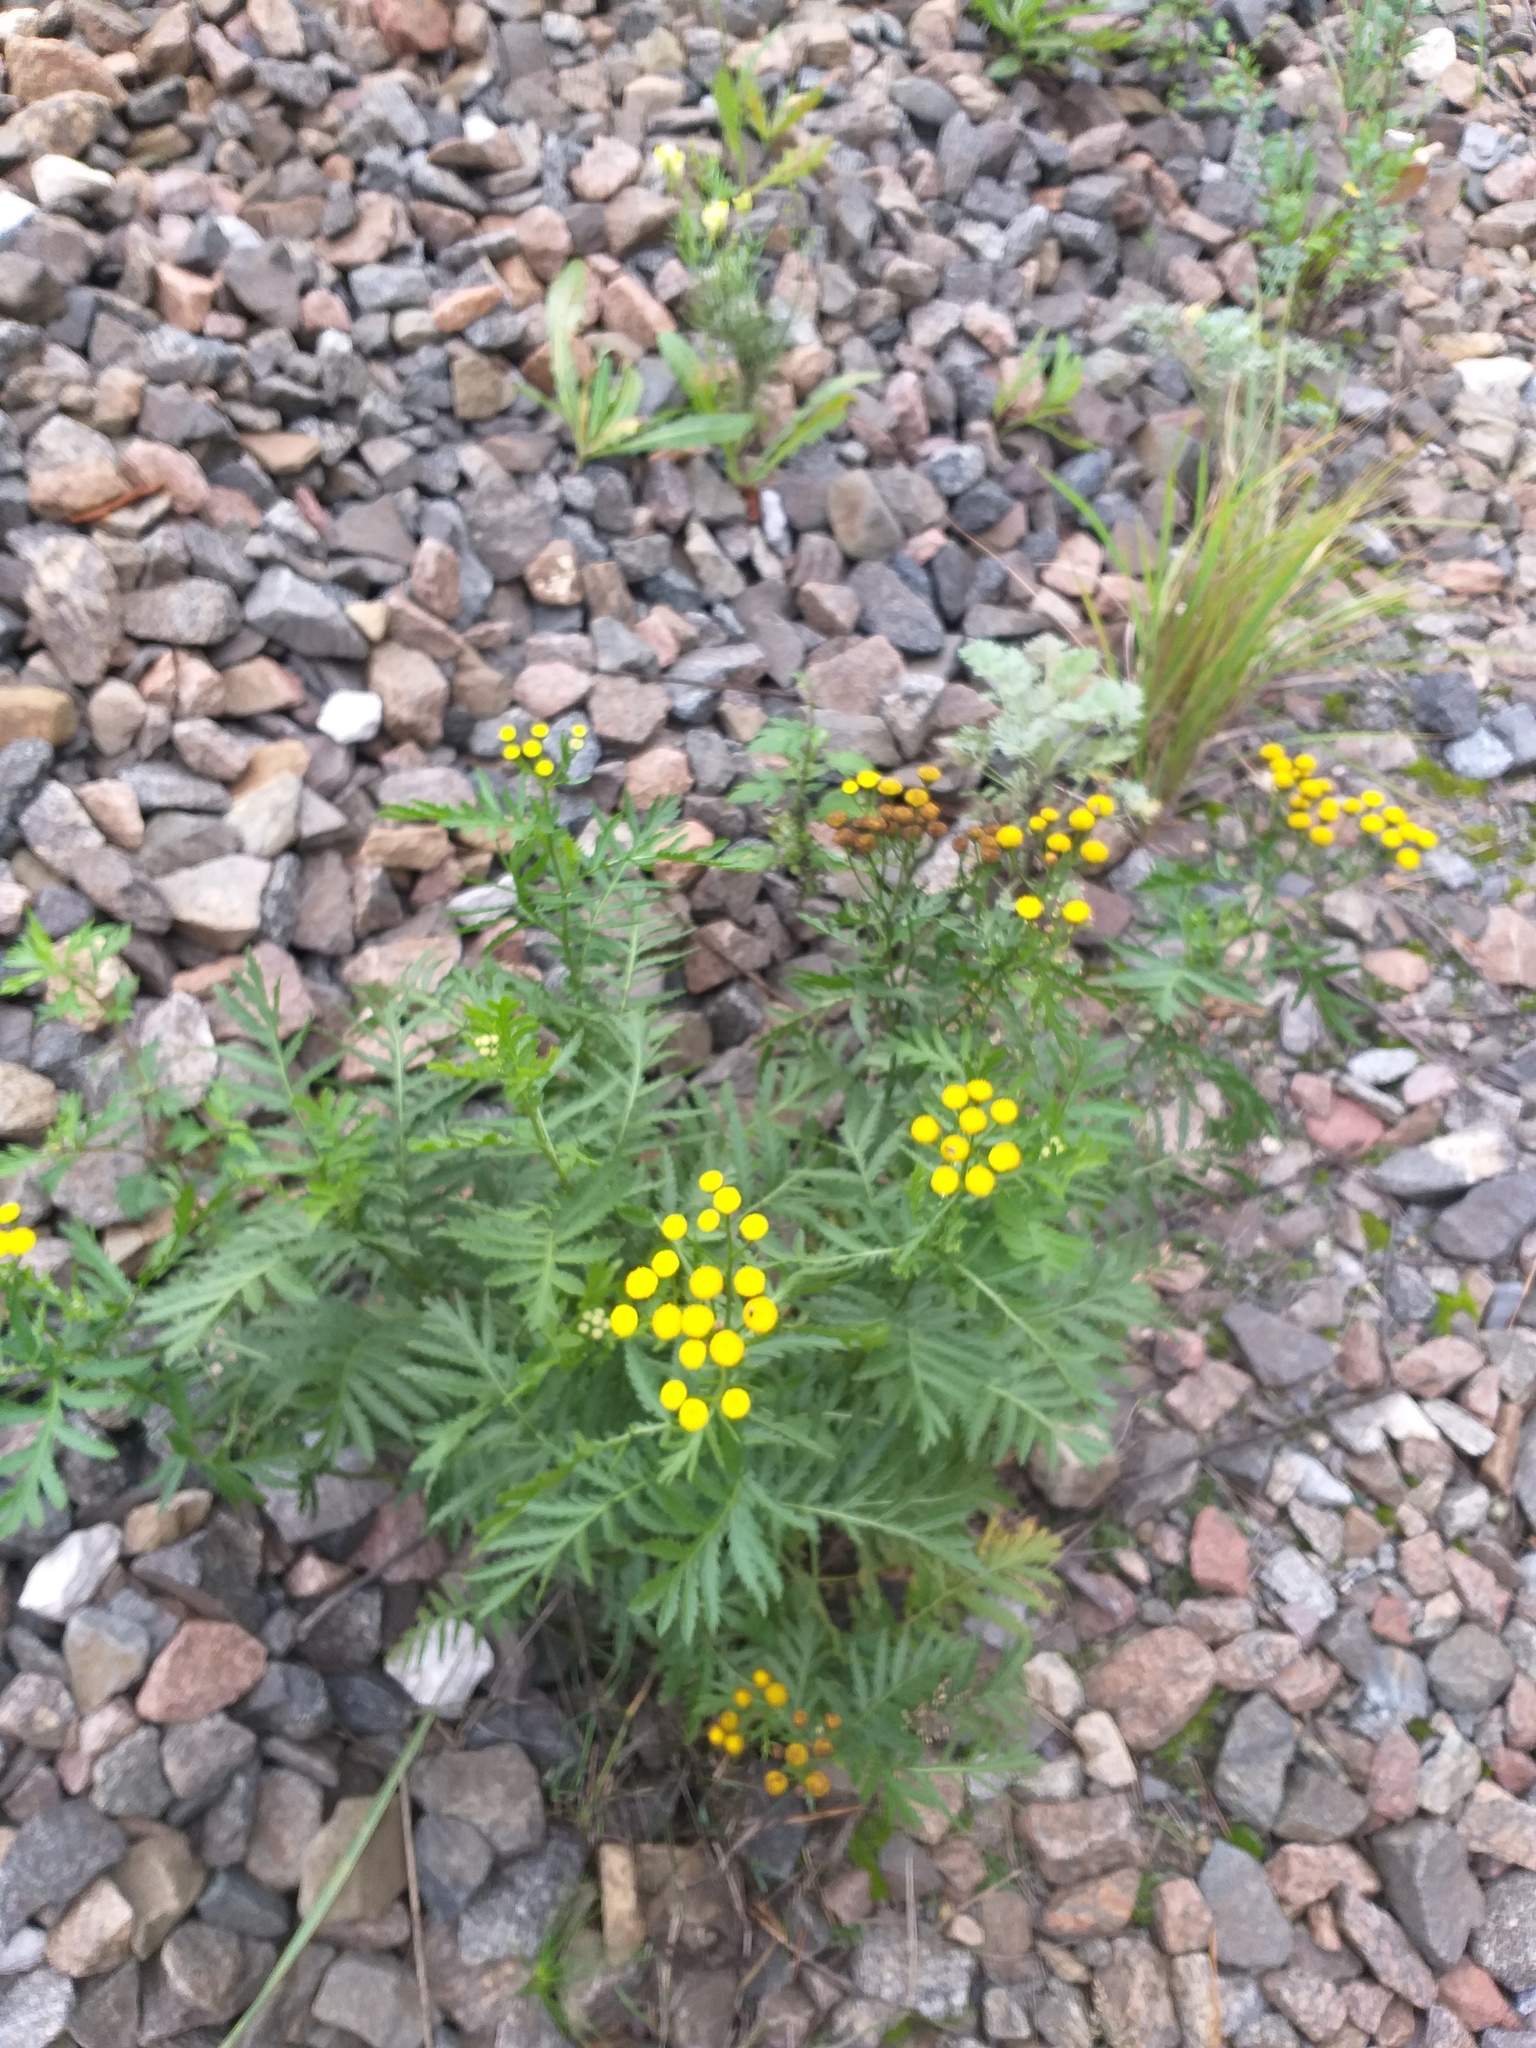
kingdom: Plantae
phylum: Tracheophyta
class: Magnoliopsida
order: Asterales
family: Asteraceae
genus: Tanacetum
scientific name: Tanacetum vulgare
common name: Common tansy
